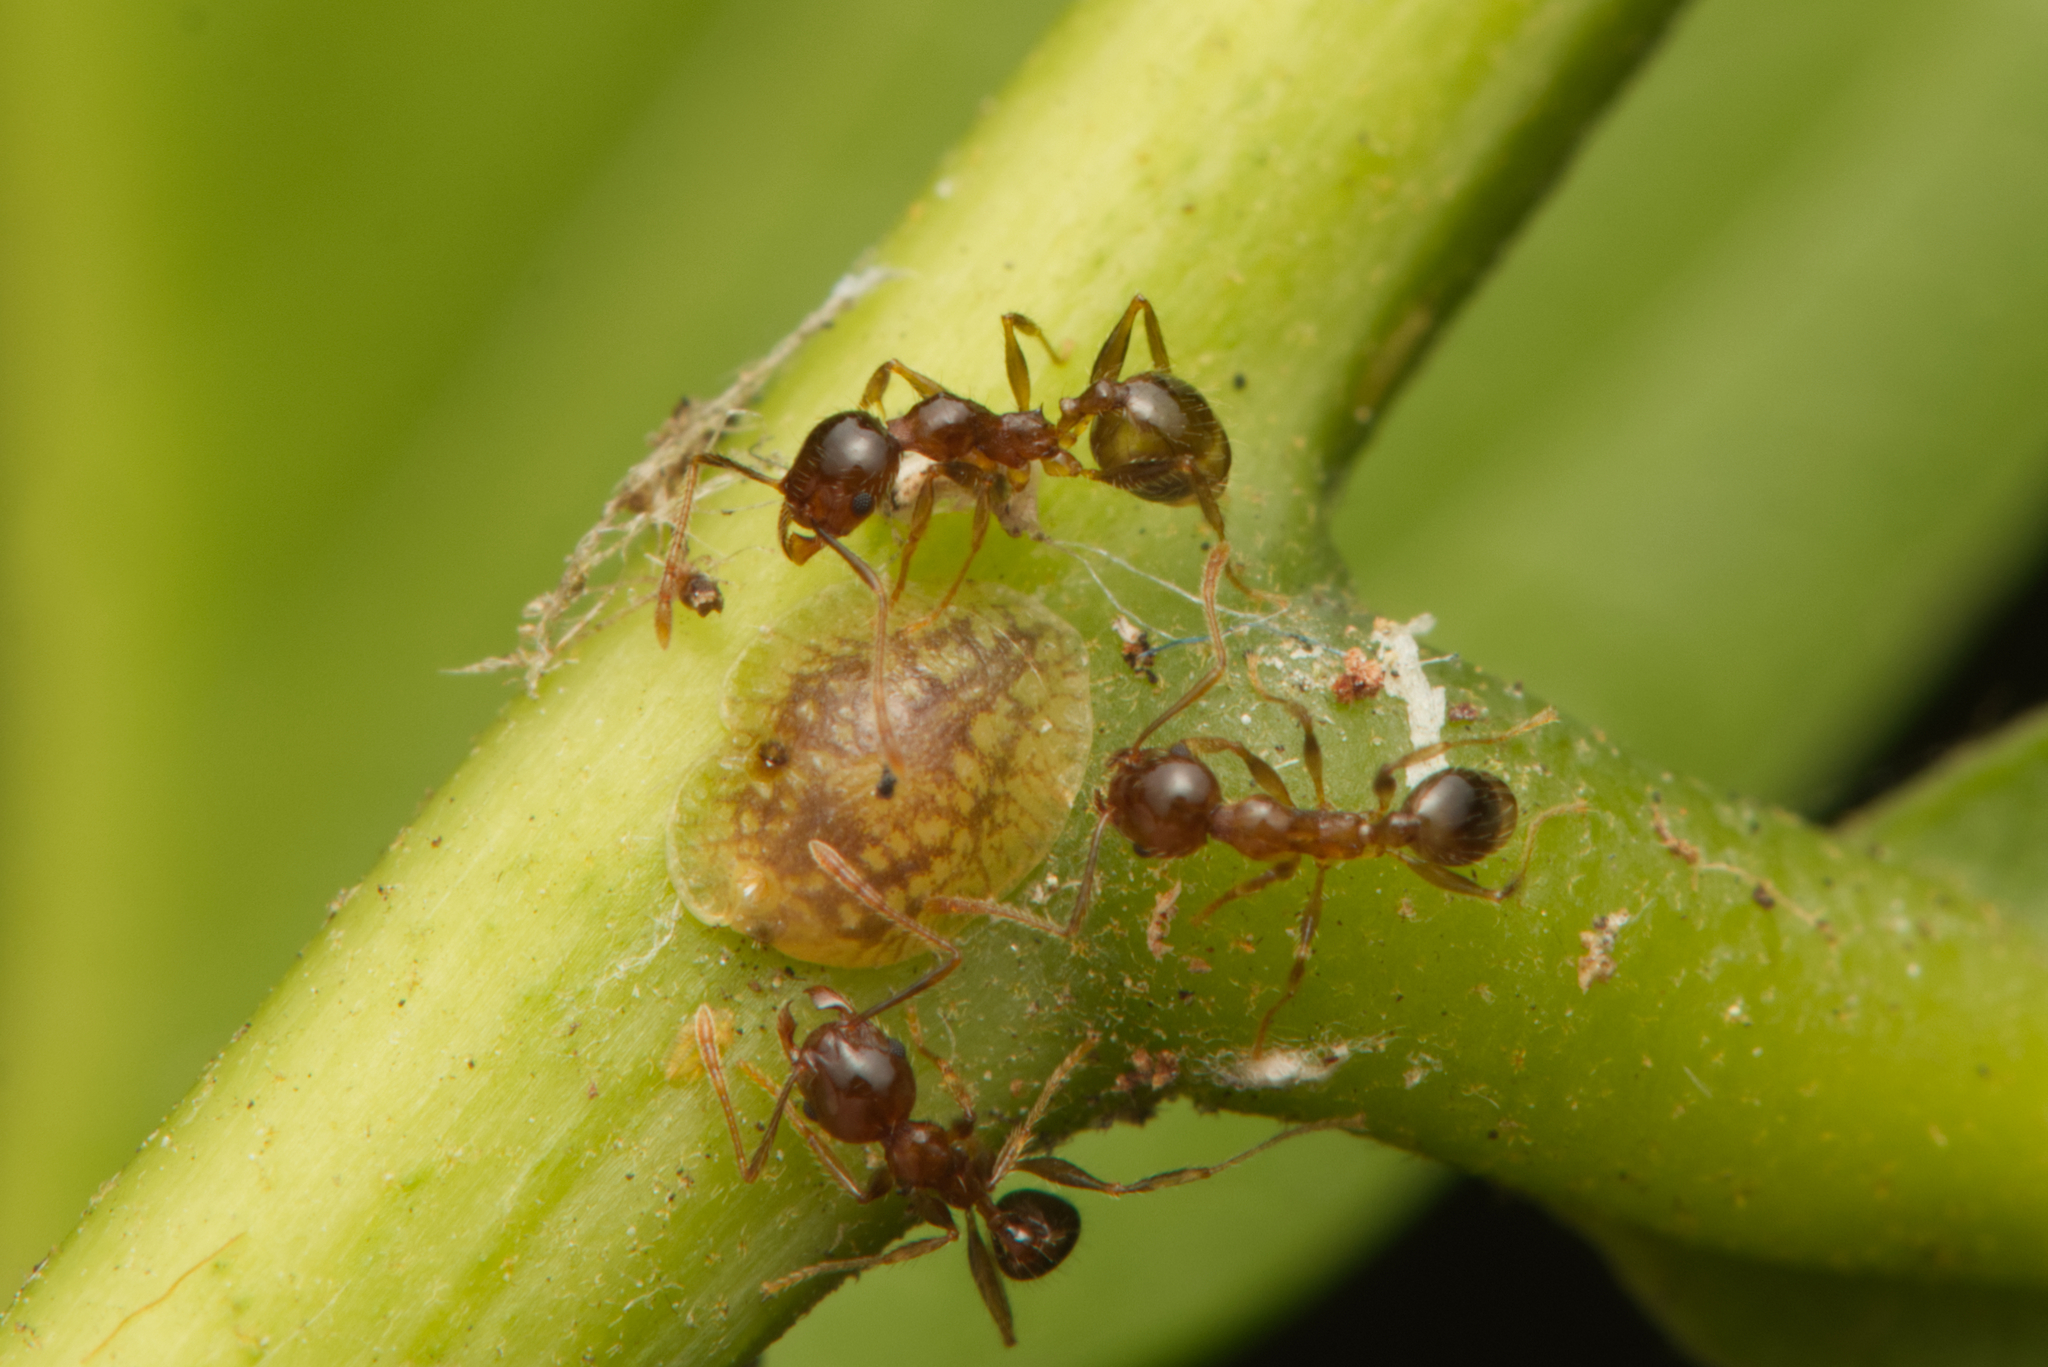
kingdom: Animalia
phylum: Arthropoda
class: Insecta
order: Hymenoptera
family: Formicidae
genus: Pheidole
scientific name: Pheidole megacephala
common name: Bigheaded ant
